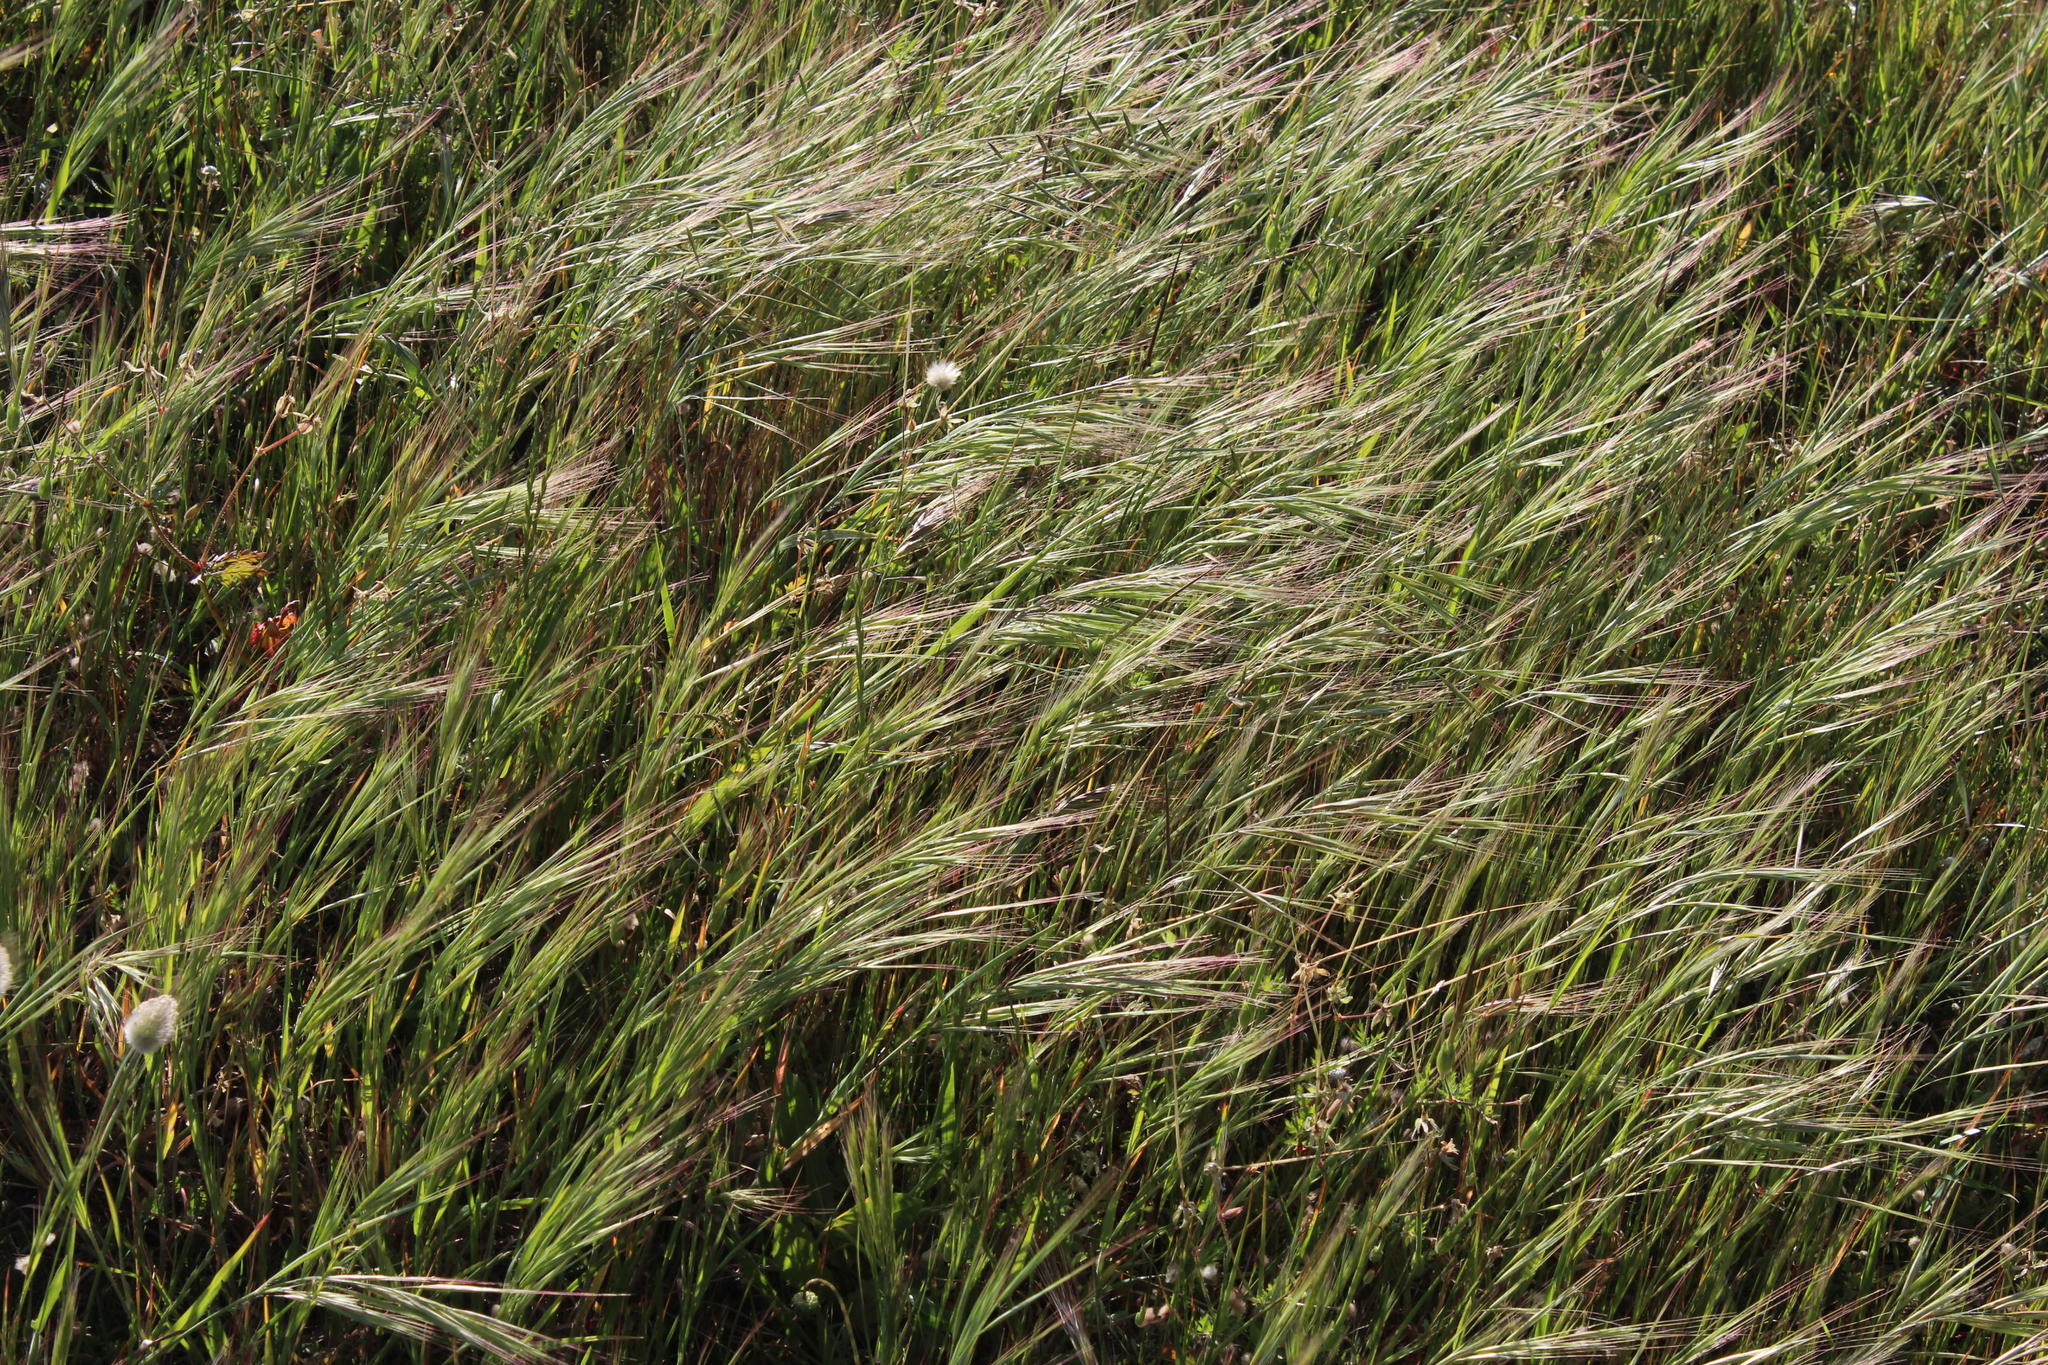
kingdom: Plantae
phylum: Tracheophyta
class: Liliopsida
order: Poales
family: Poaceae
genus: Bromus
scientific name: Bromus diandrus
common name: Ripgut brome
